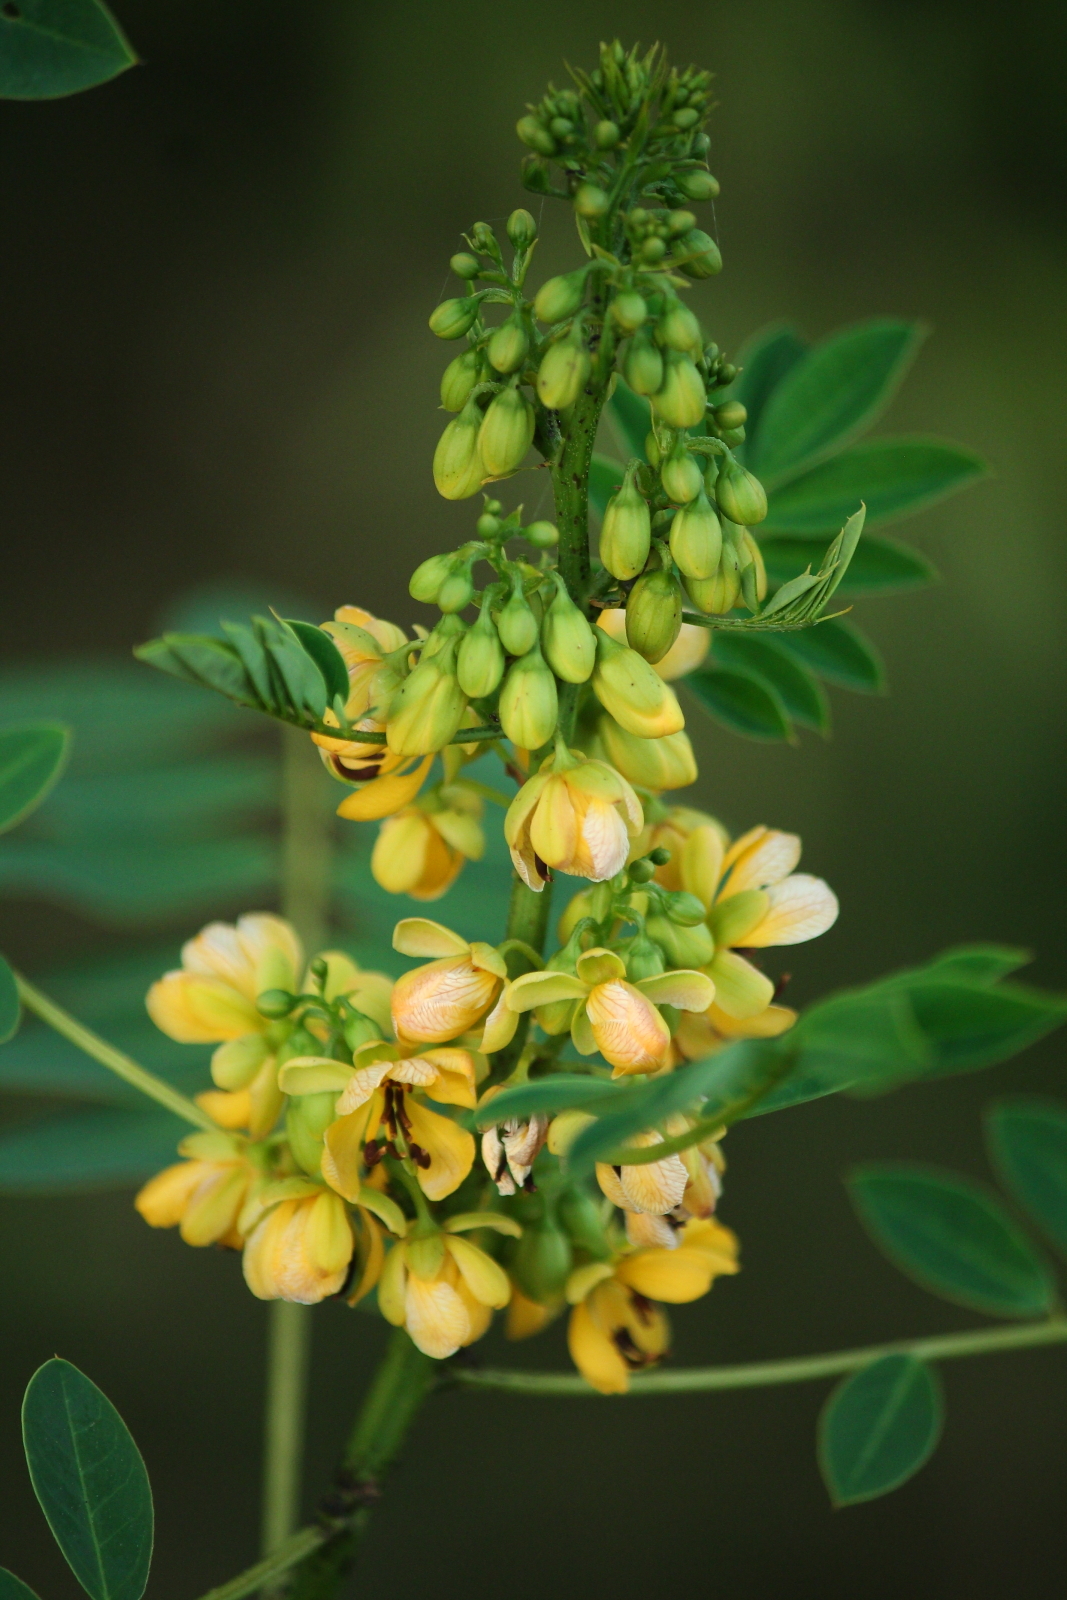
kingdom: Plantae
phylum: Tracheophyta
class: Magnoliopsida
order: Fabales
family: Fabaceae
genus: Senna
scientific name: Senna marilandica
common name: American senna
